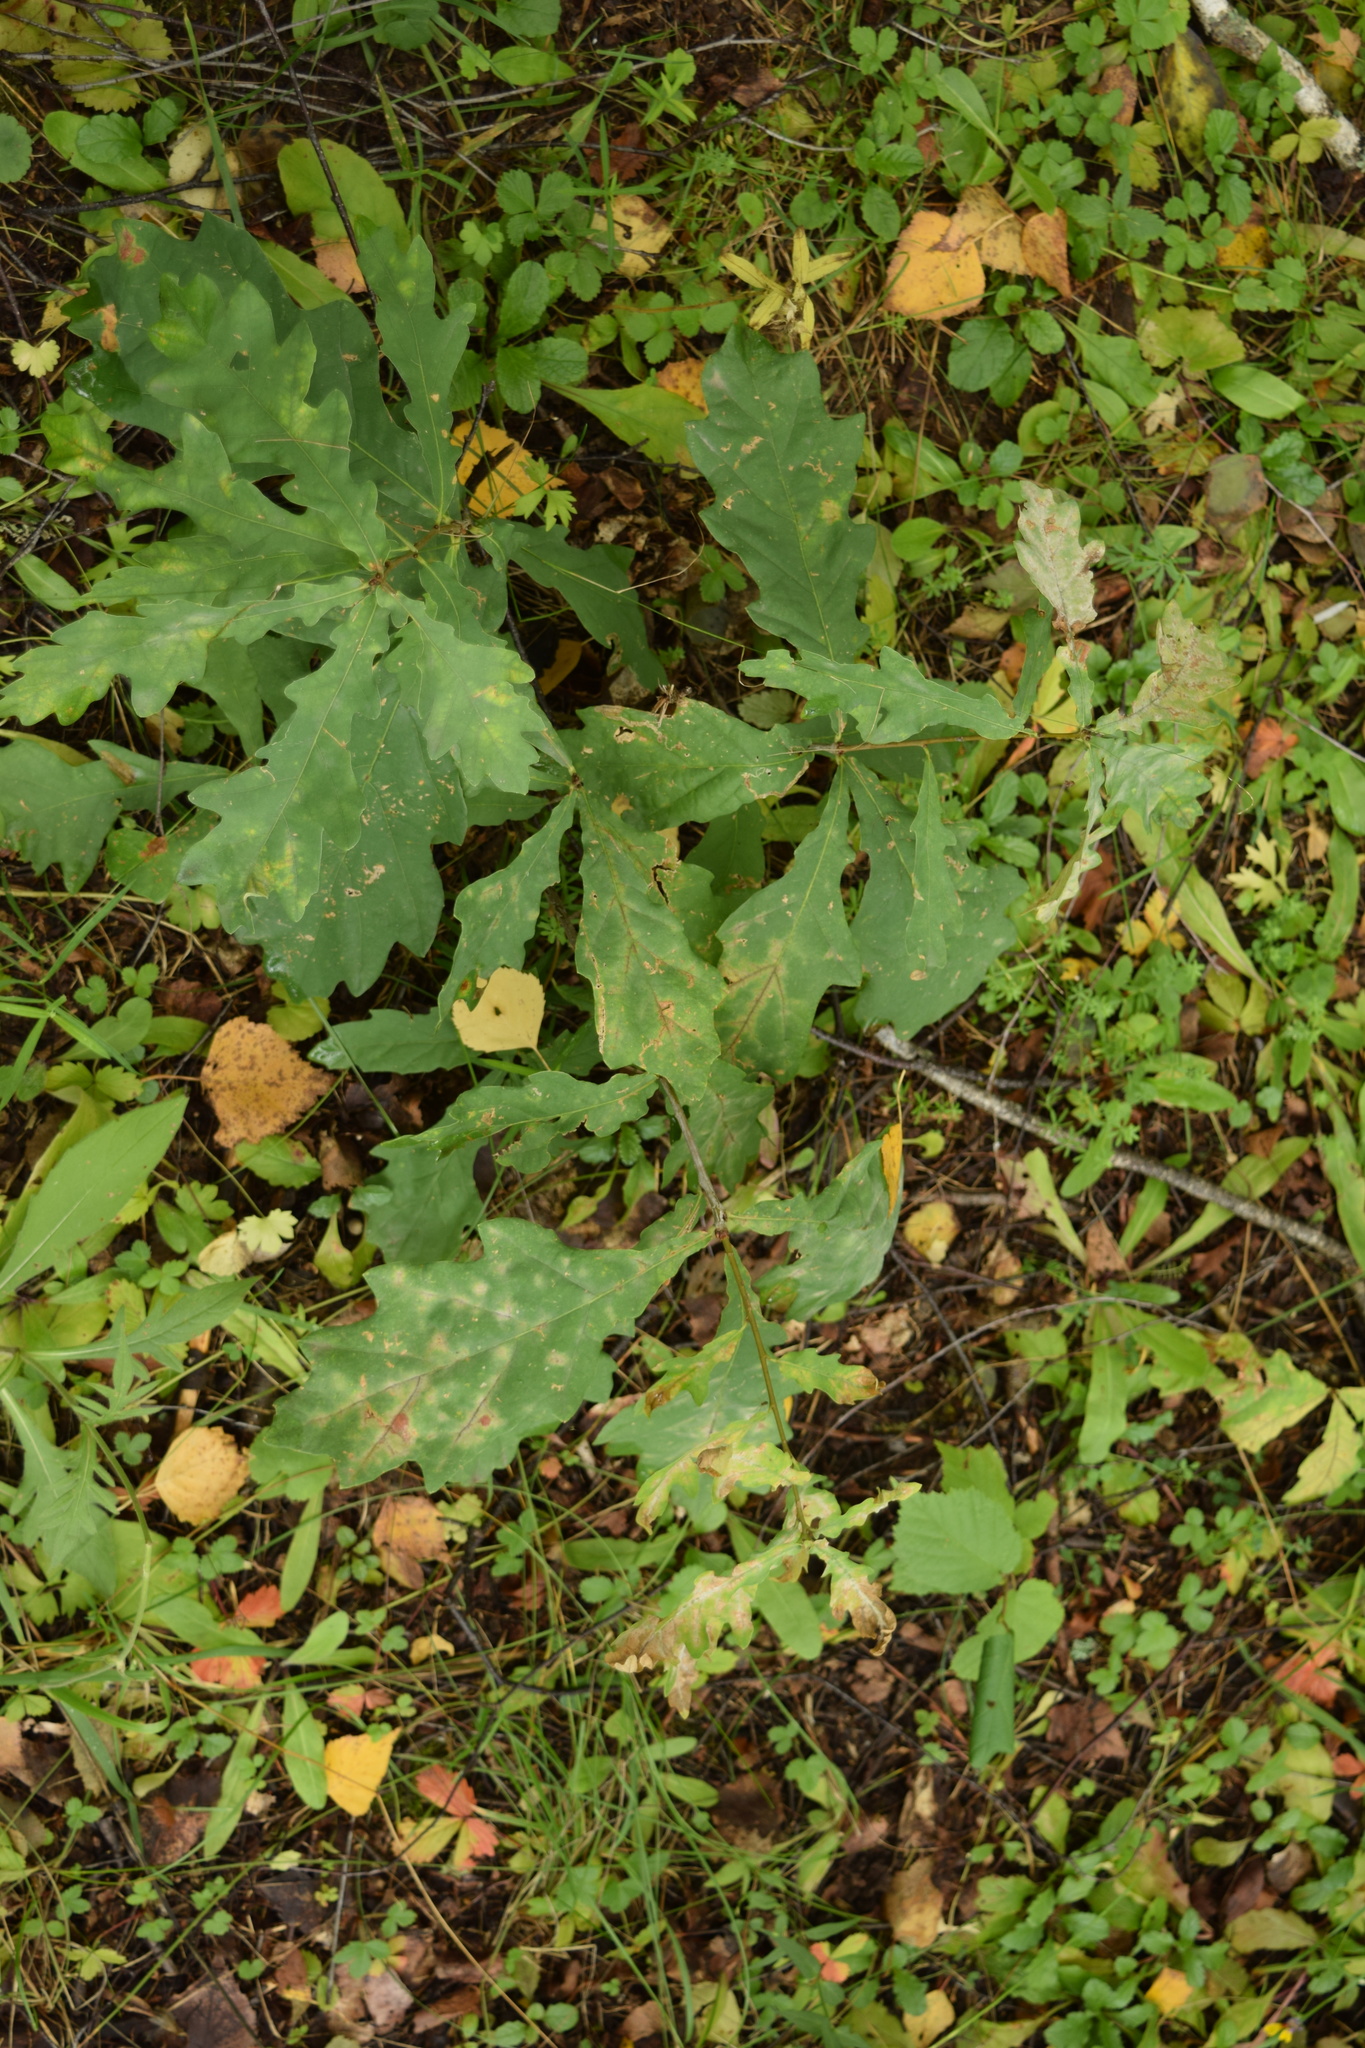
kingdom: Plantae
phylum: Tracheophyta
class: Magnoliopsida
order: Fagales
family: Fagaceae
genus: Quercus
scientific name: Quercus robur
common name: Pedunculate oak
